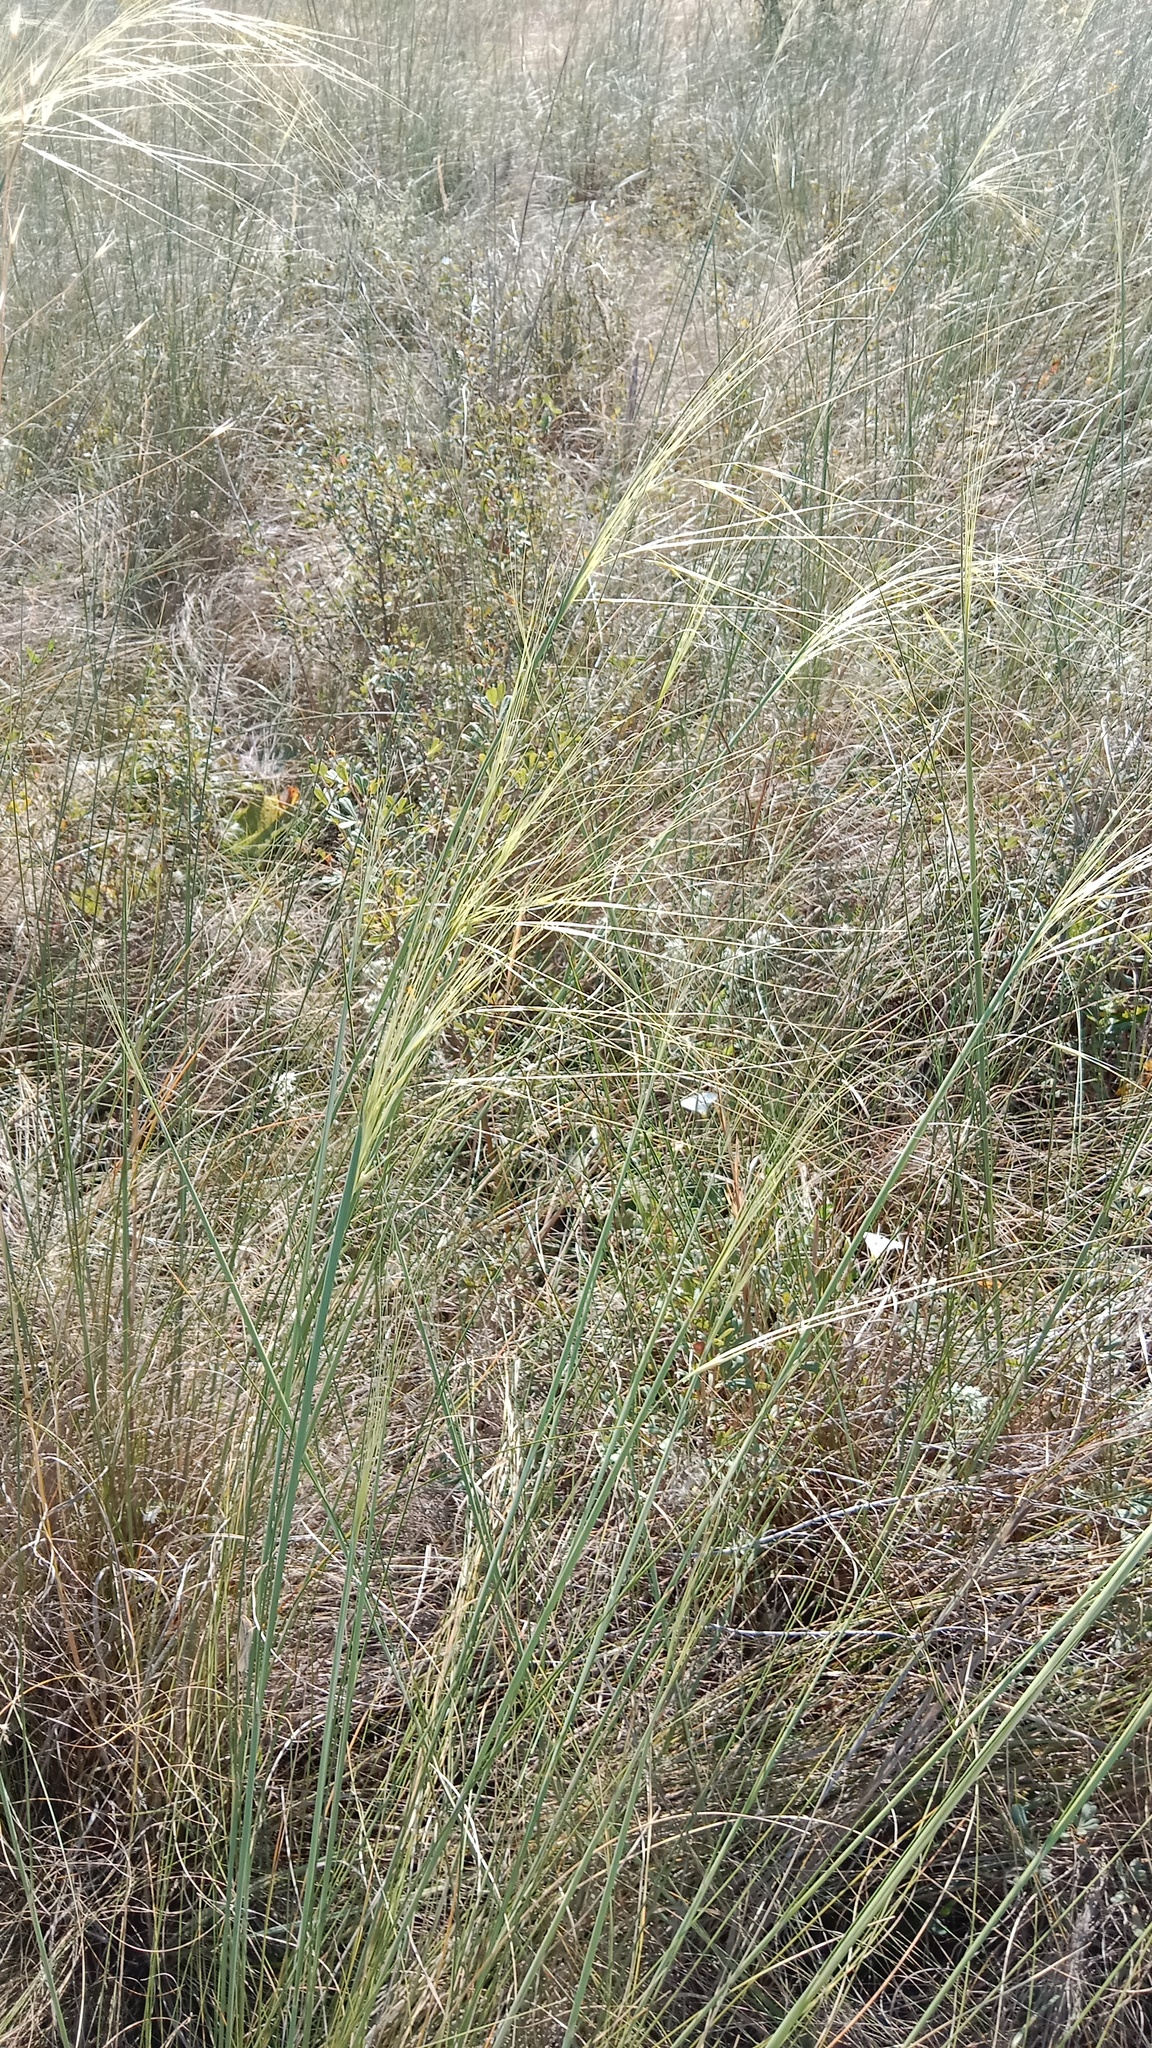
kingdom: Plantae
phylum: Tracheophyta
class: Liliopsida
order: Poales
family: Poaceae
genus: Stipa
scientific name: Stipa capillata
